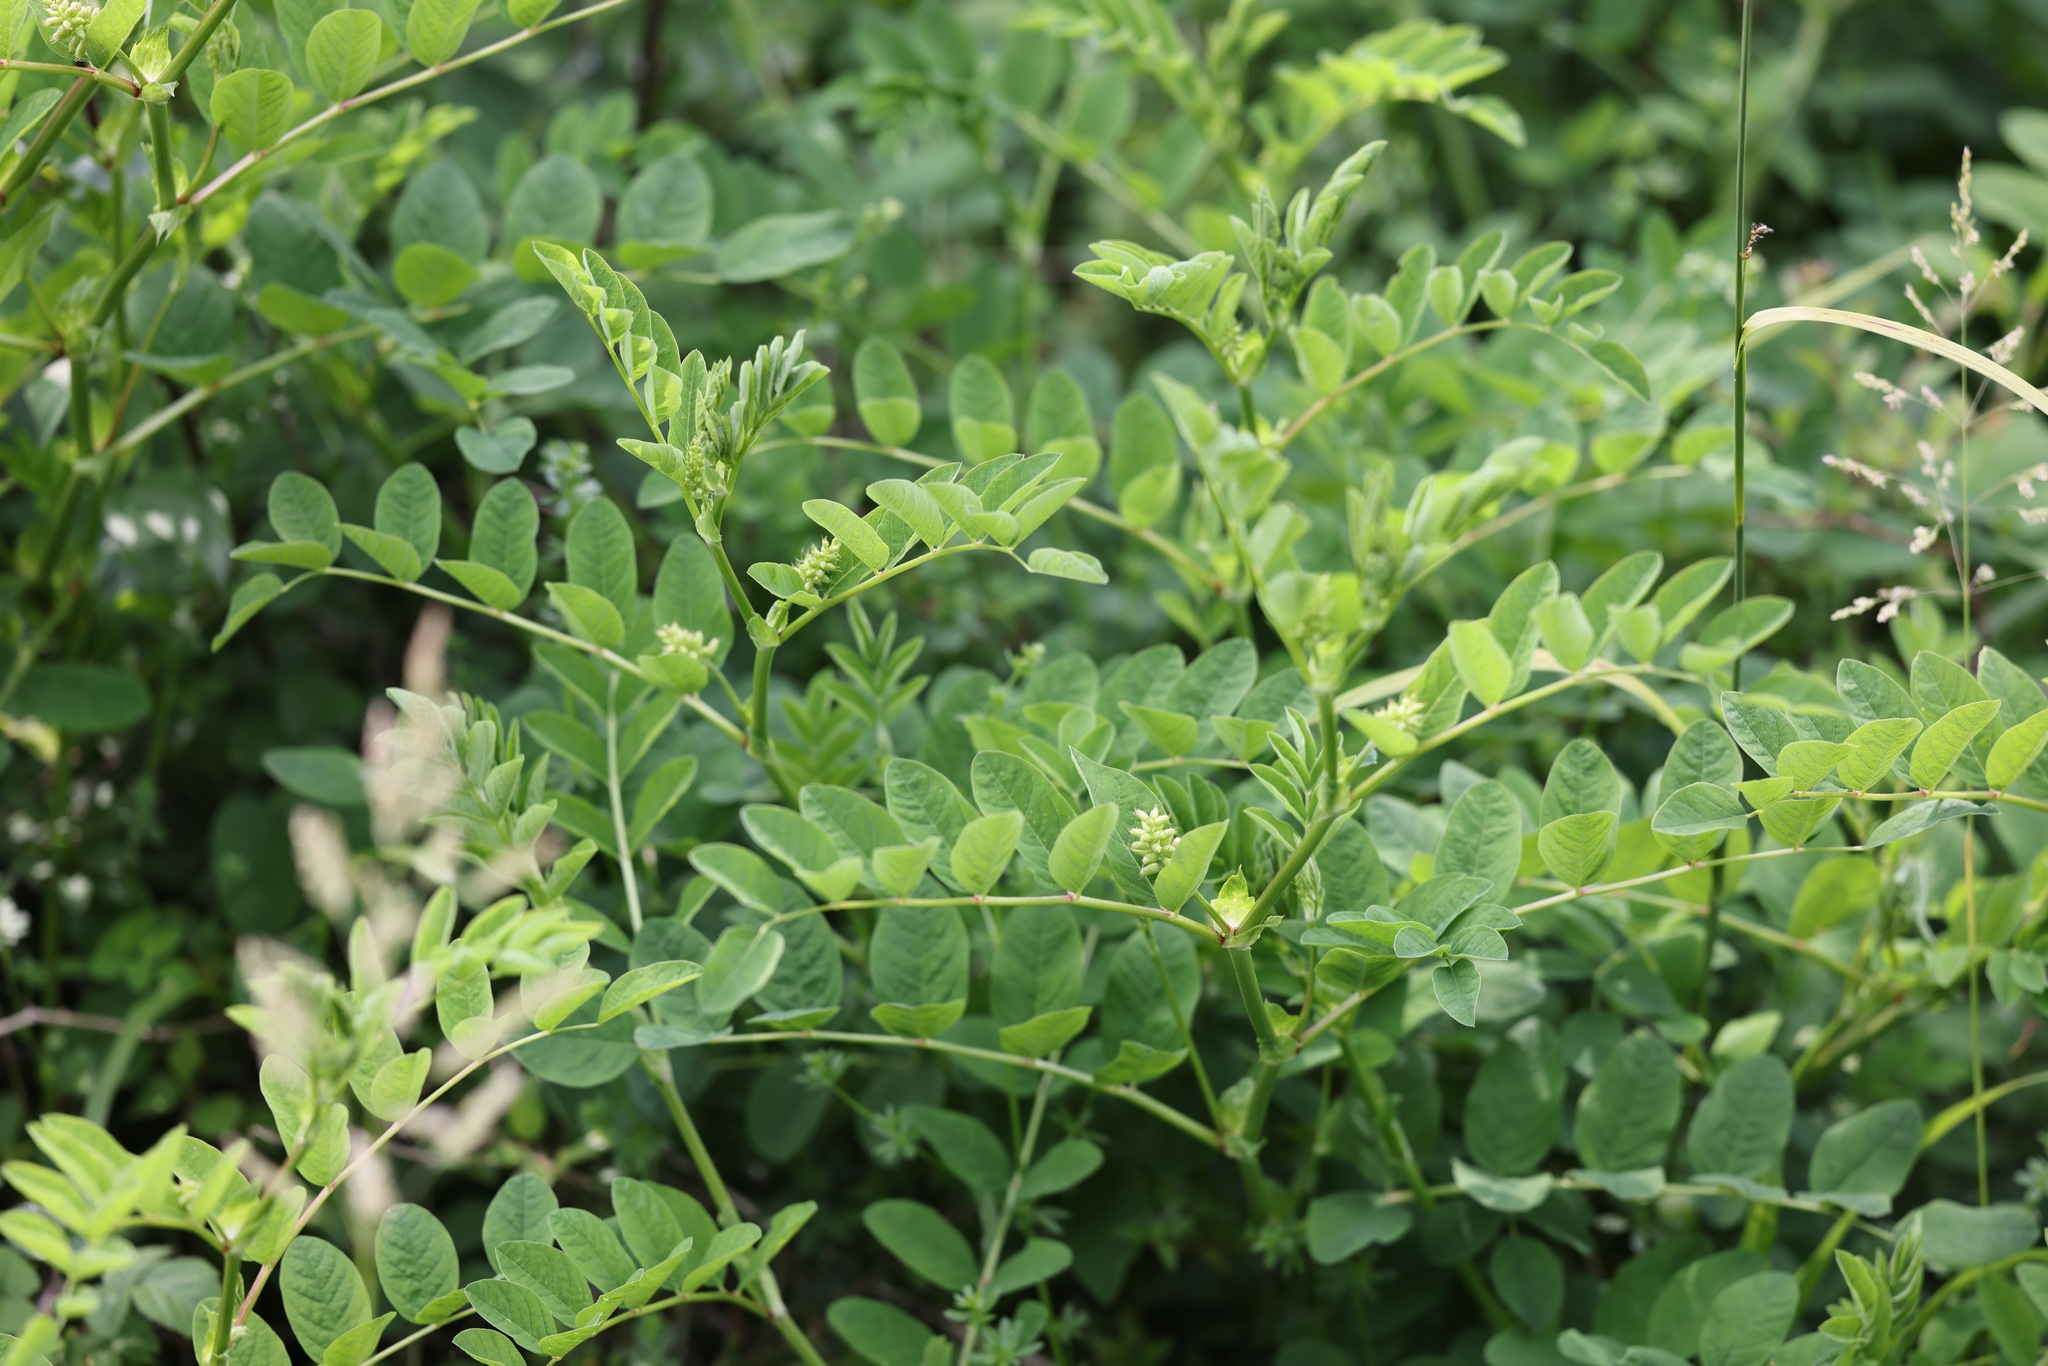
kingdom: Plantae
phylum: Tracheophyta
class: Magnoliopsida
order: Fabales
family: Fabaceae
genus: Astragalus
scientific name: Astragalus glycyphyllos
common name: Wild liquorice
